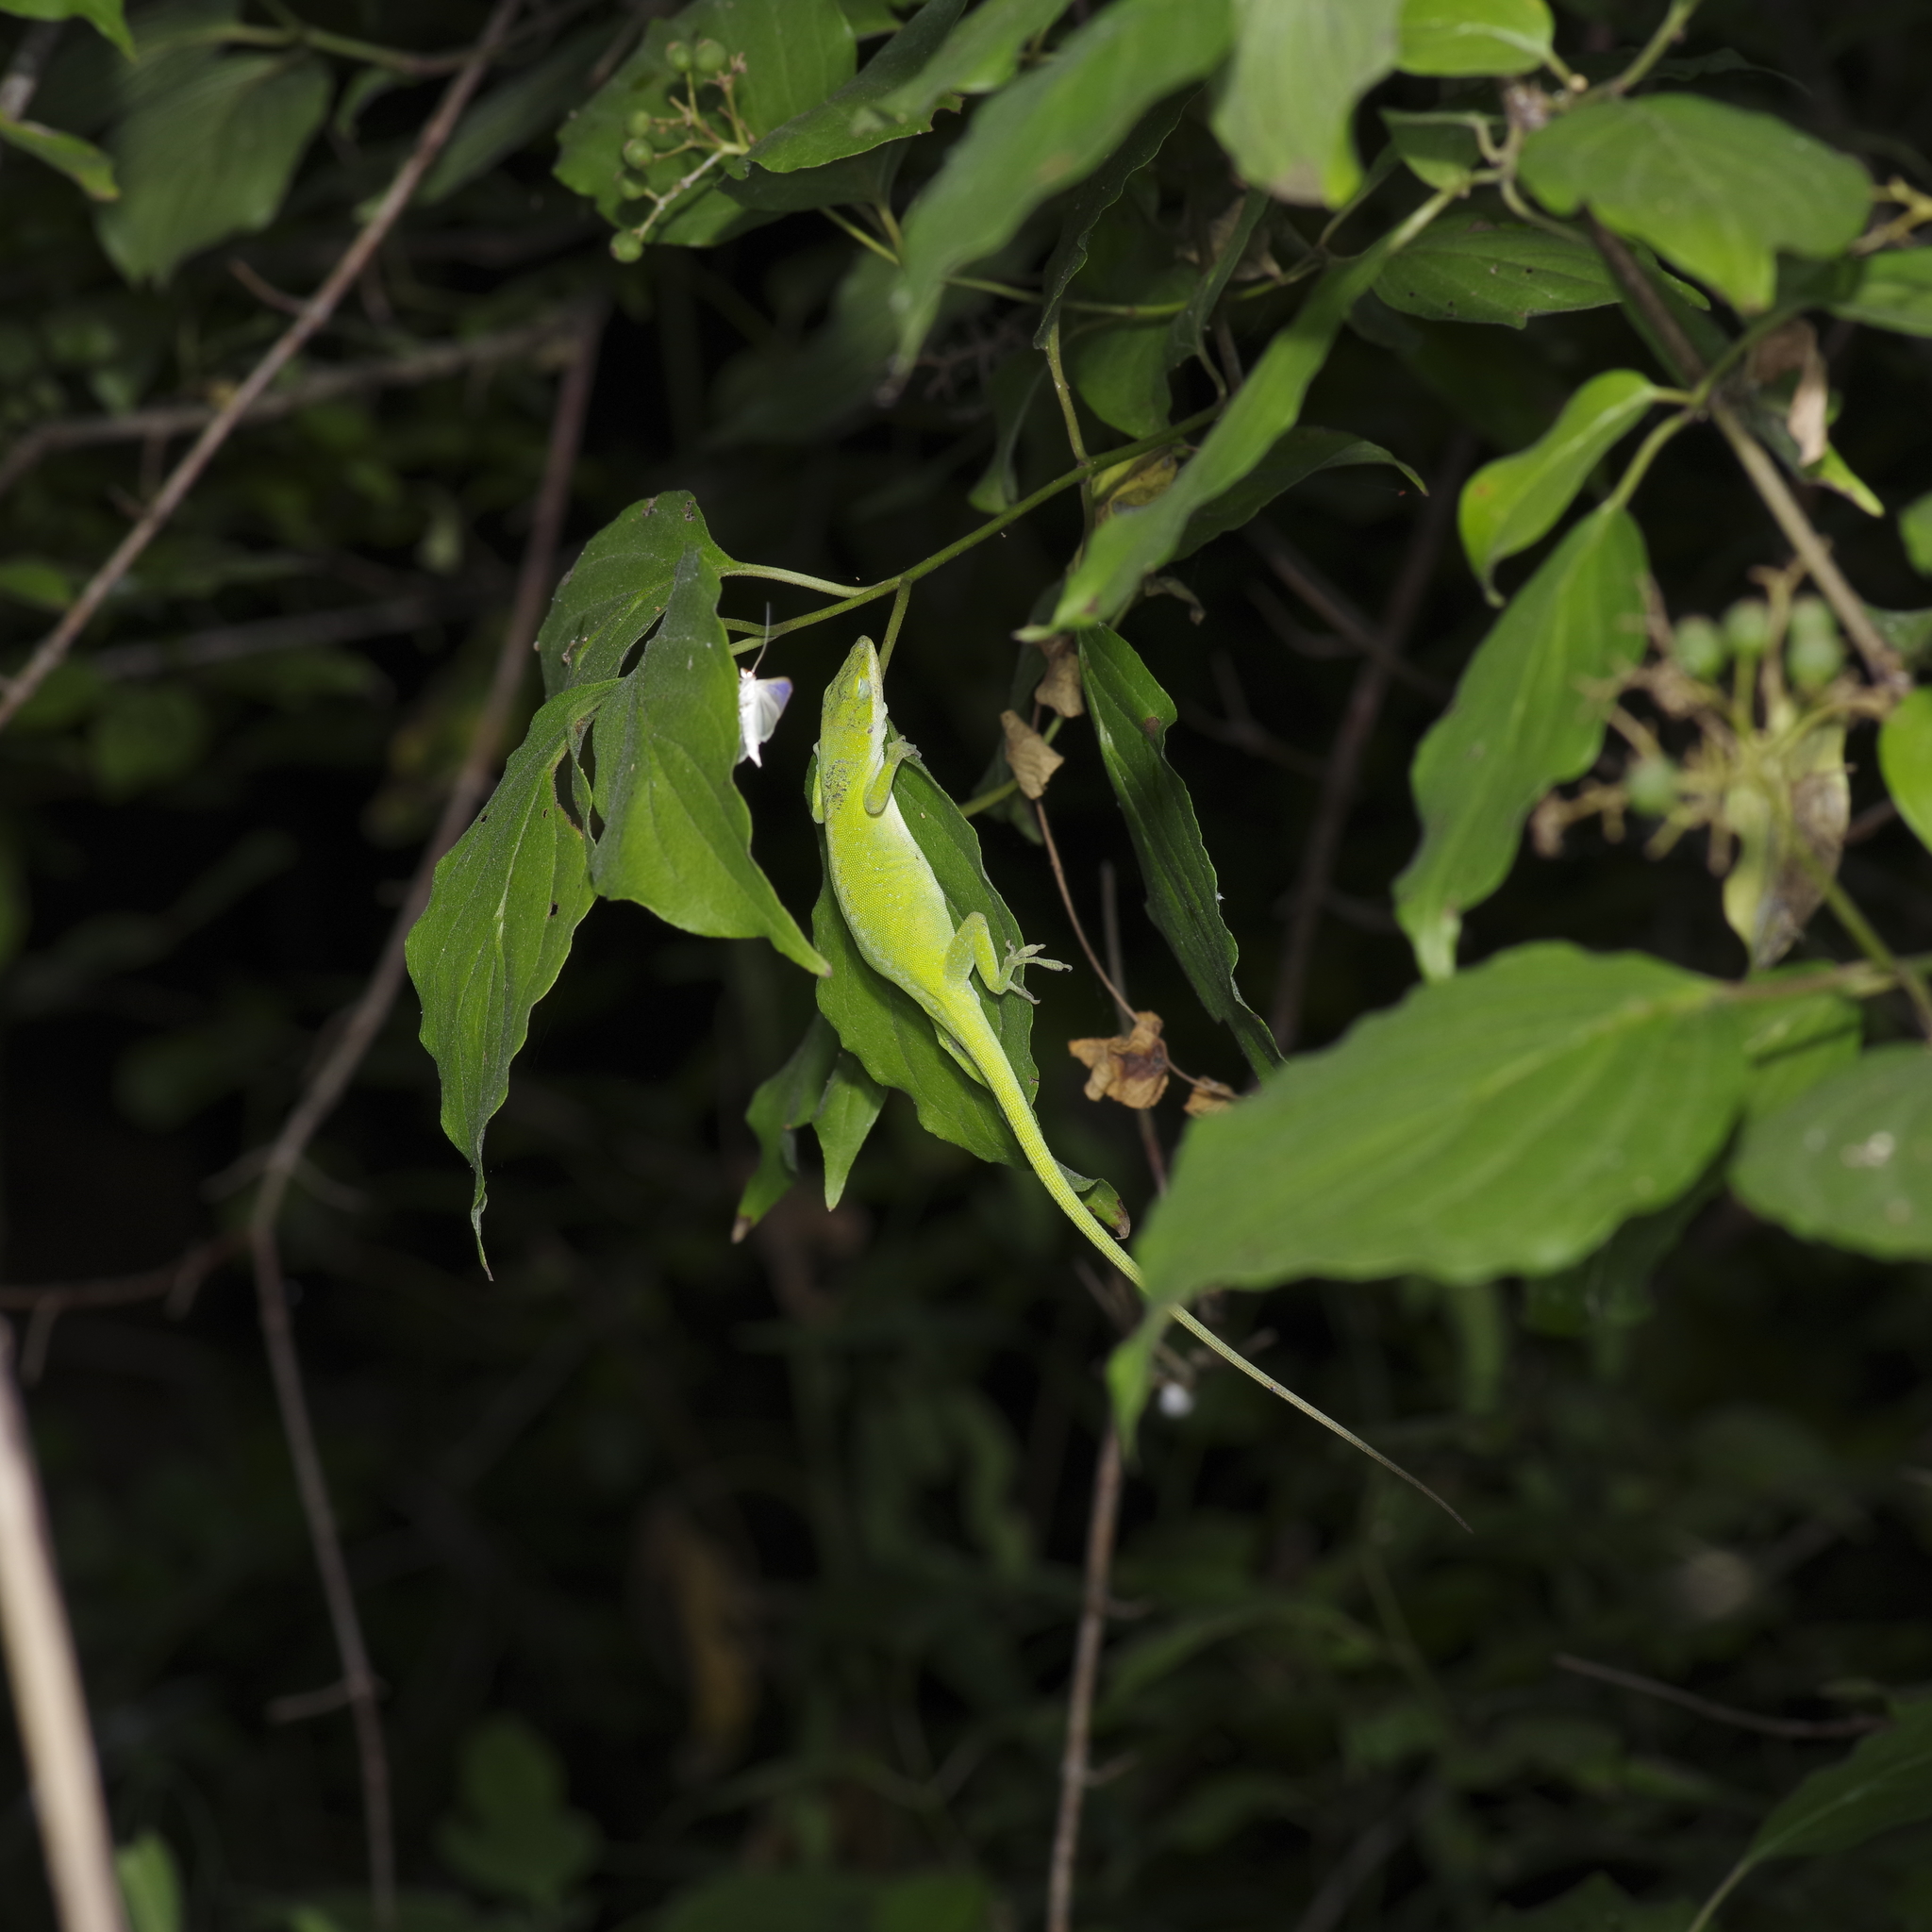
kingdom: Animalia
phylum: Chordata
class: Squamata
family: Dactyloidae
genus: Anolis
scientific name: Anolis carolinensis
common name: Green anole
